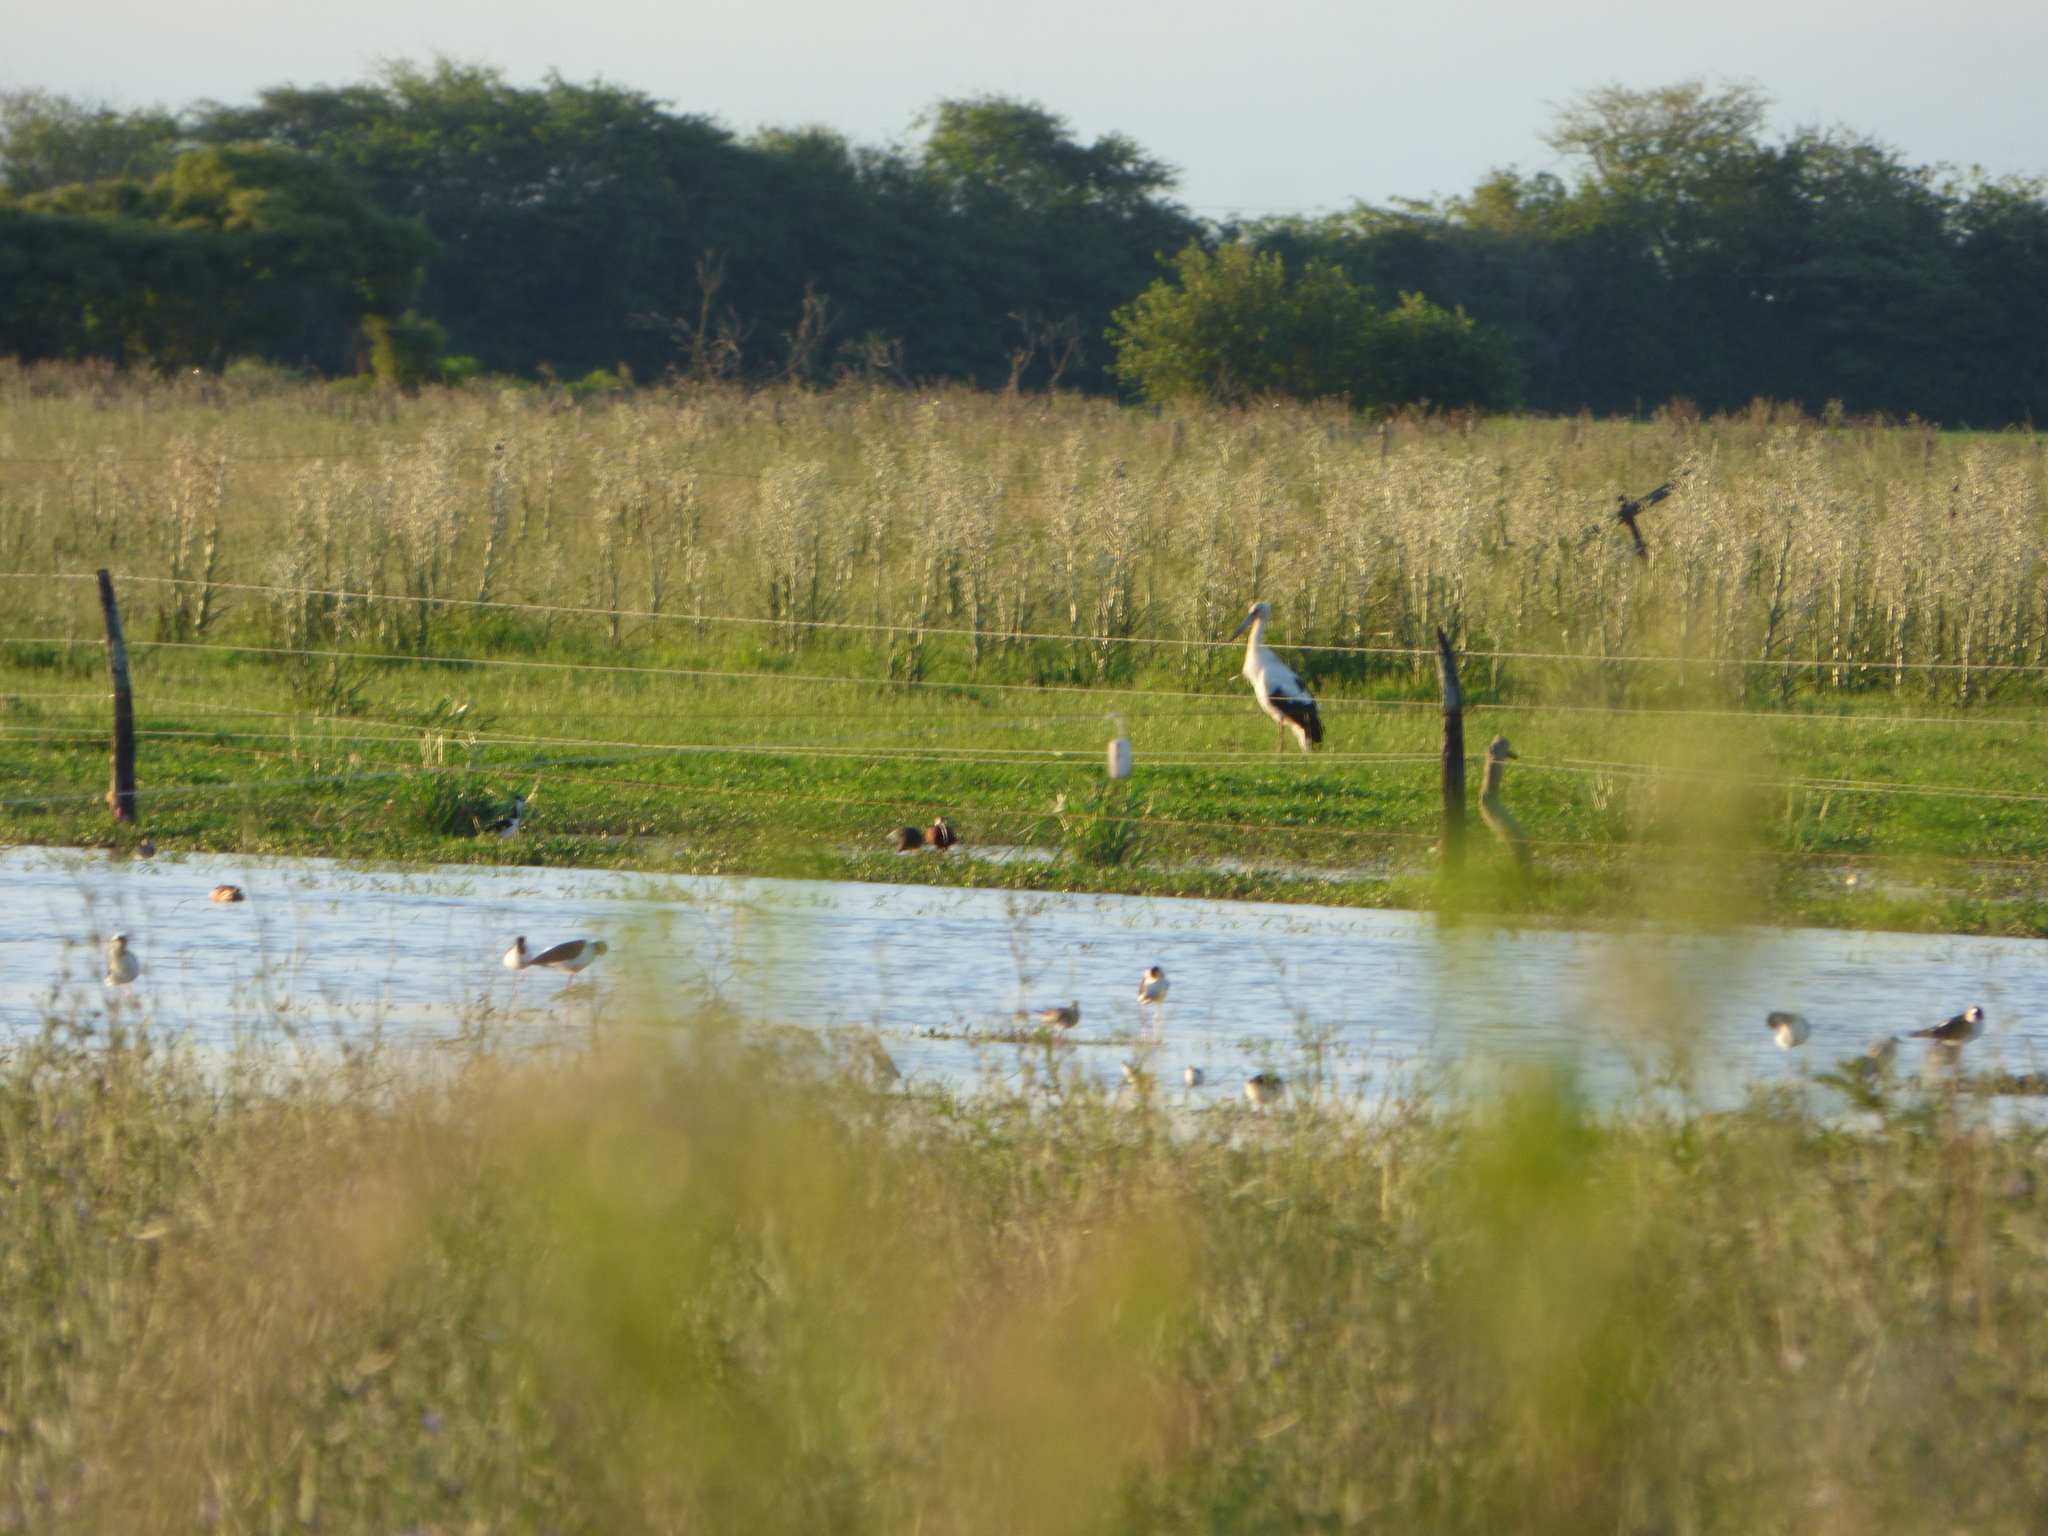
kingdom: Animalia
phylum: Chordata
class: Aves
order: Ciconiiformes
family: Ciconiidae
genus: Ciconia
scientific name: Ciconia maguari
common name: Maguari stork
